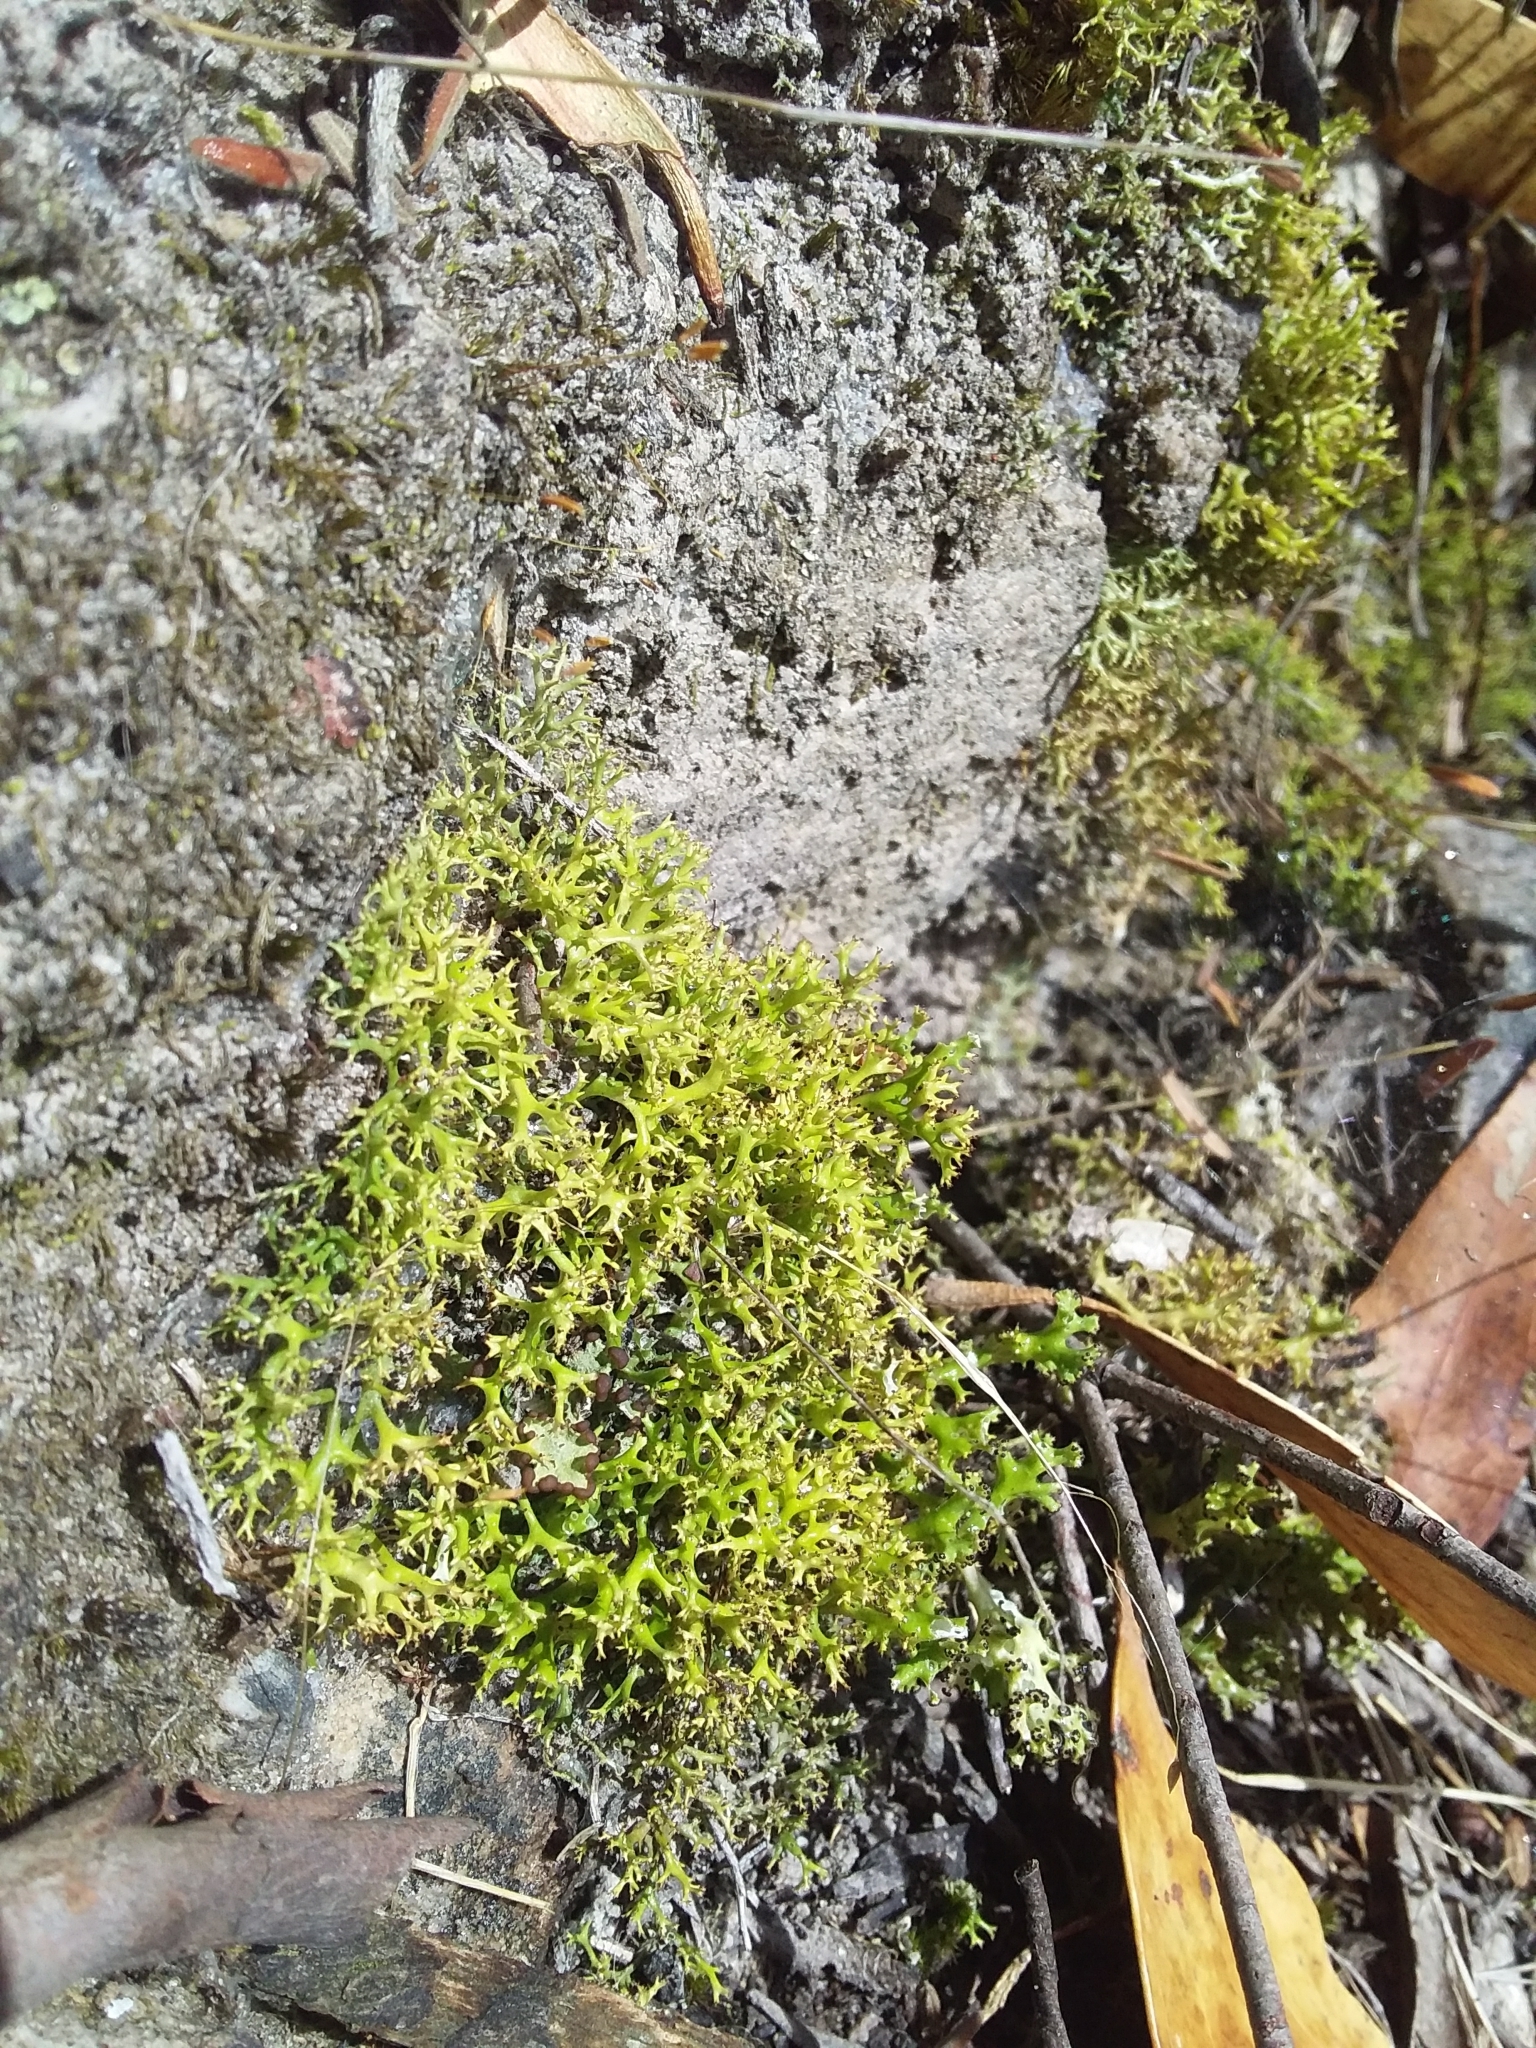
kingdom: Fungi
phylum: Ascomycota
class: Lecanoromycetes
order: Lecanorales
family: Cladoniaceae
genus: Cladia
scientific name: Cladia aggregata
